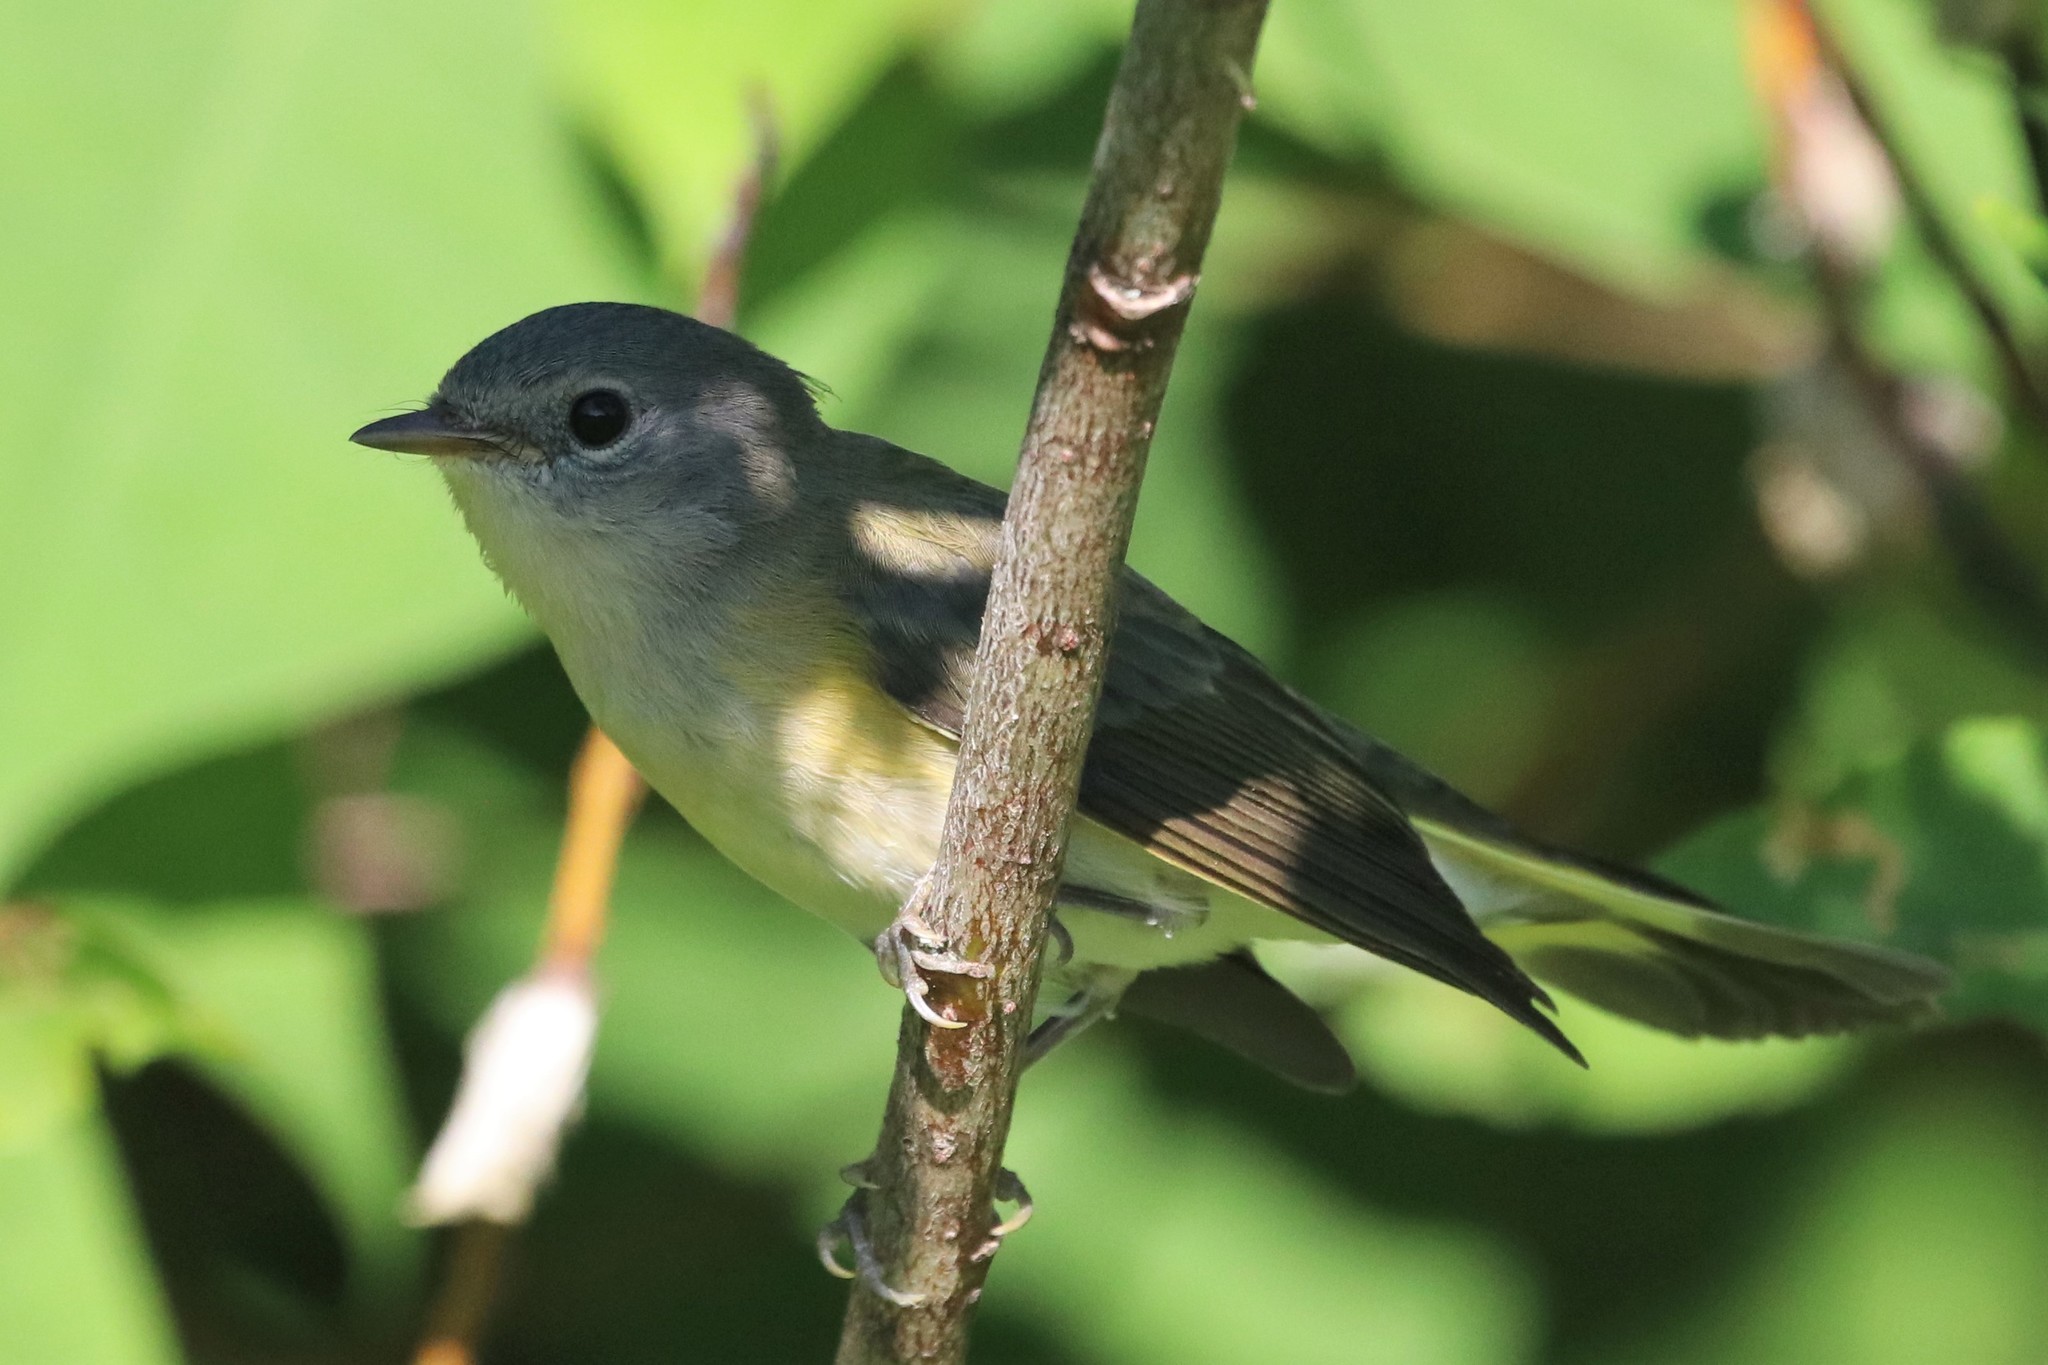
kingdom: Animalia
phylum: Chordata
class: Aves
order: Passeriformes
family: Parulidae
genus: Setophaga
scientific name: Setophaga ruticilla
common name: American redstart
